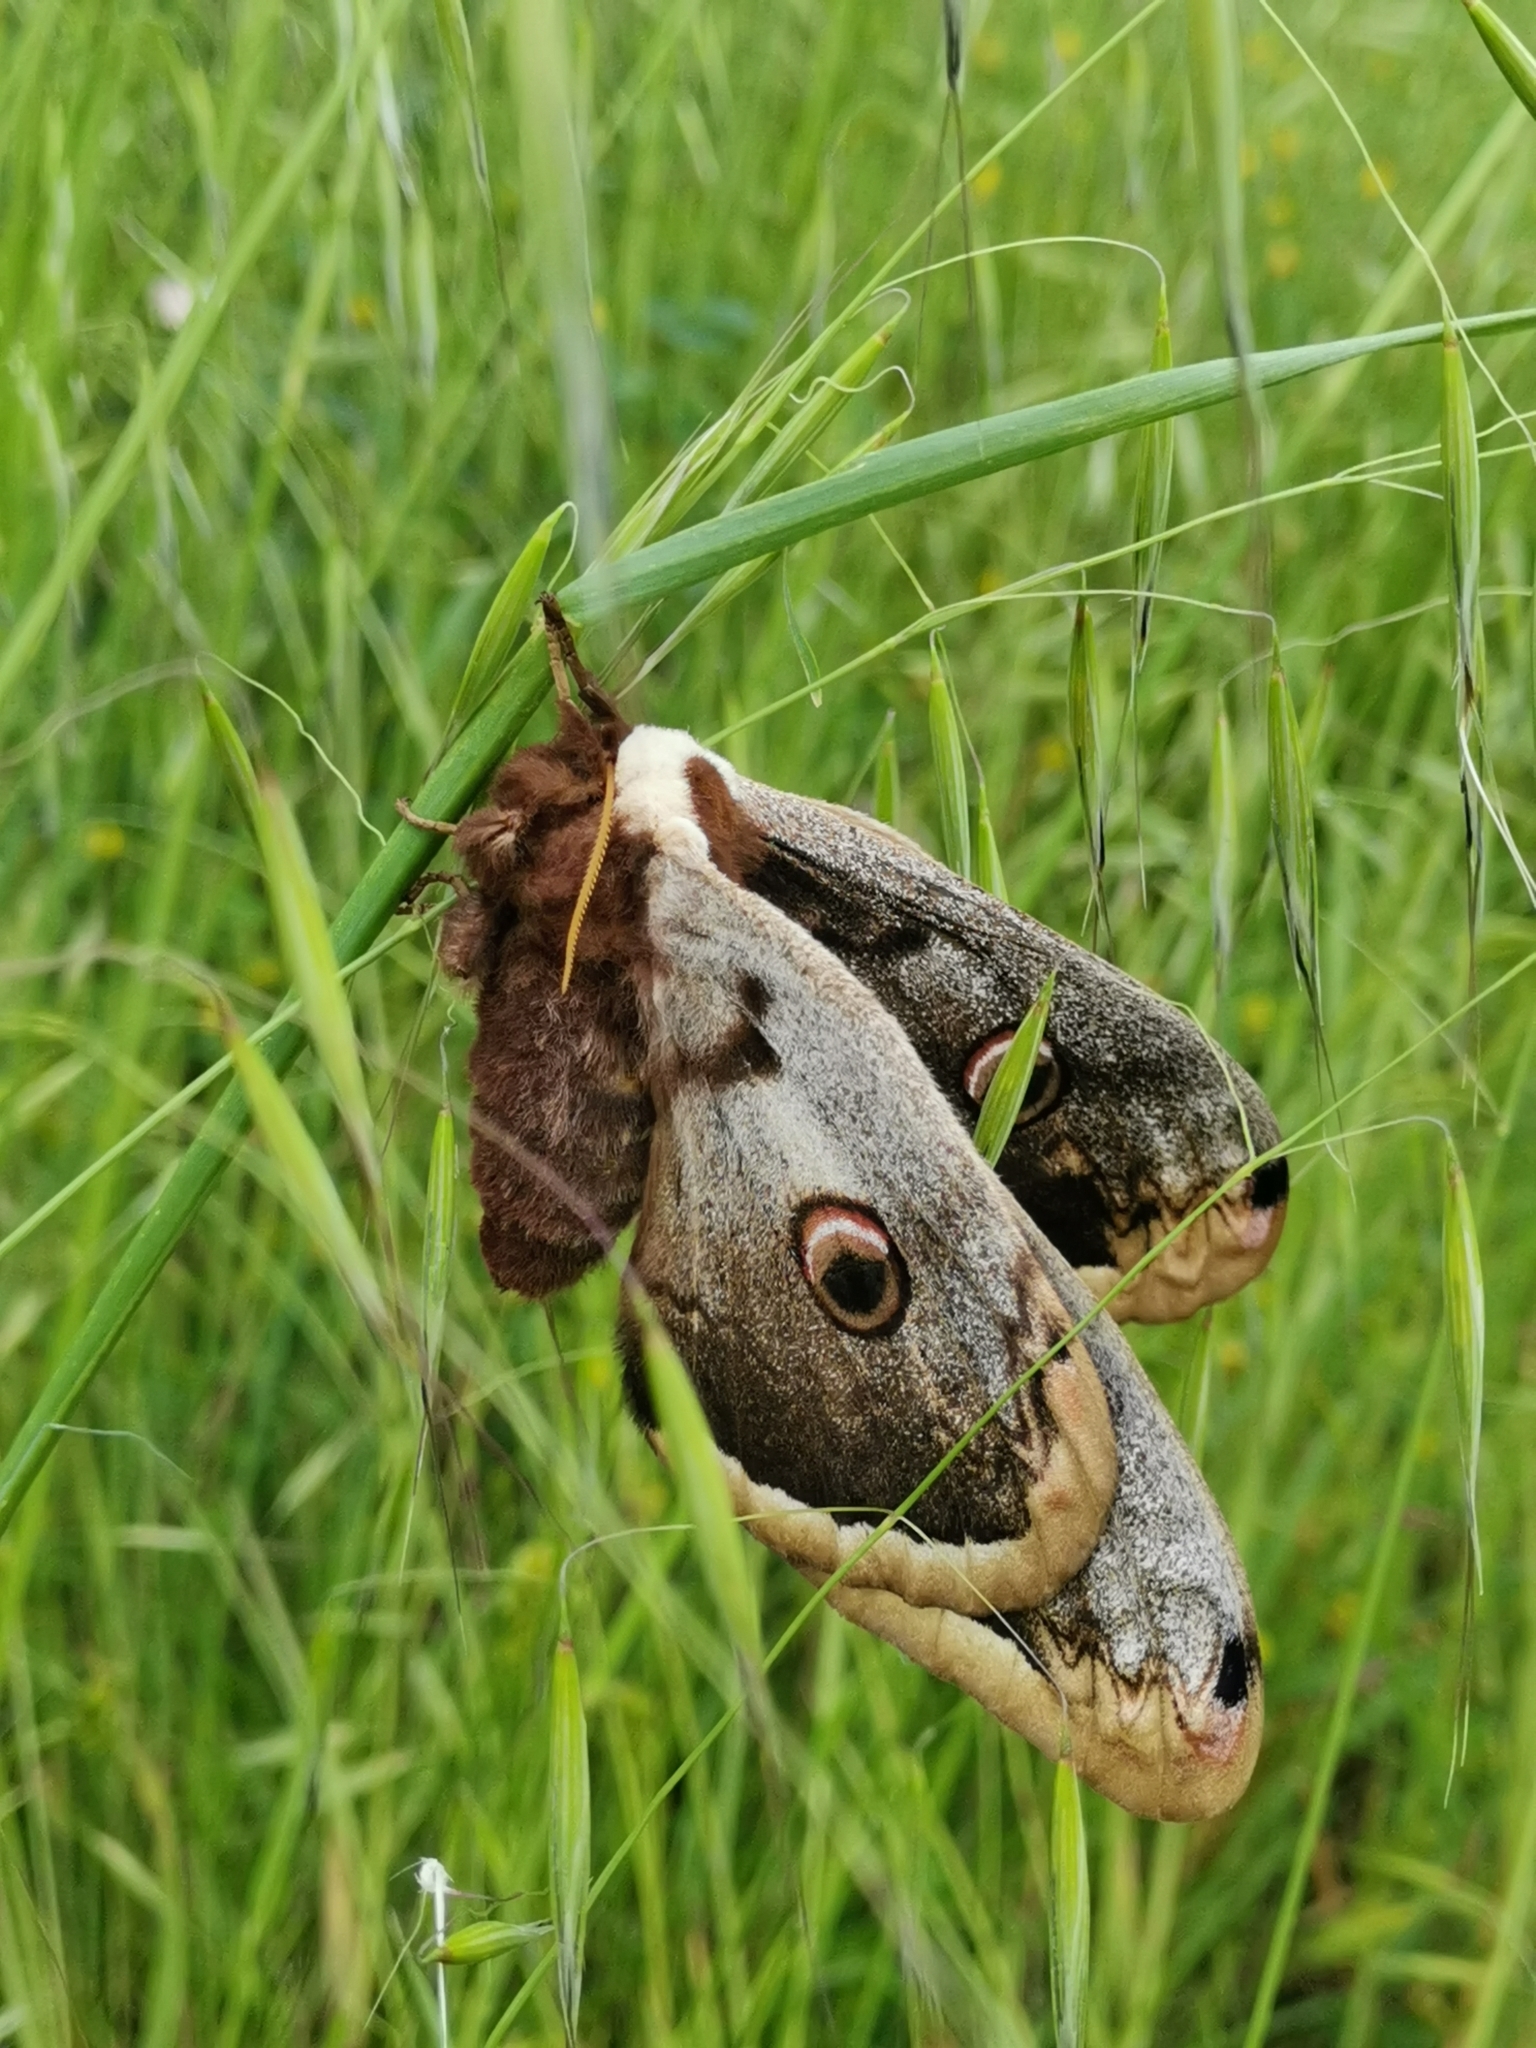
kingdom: Animalia
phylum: Arthropoda
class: Insecta
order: Lepidoptera
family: Saturniidae
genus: Saturnia
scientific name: Saturnia pyri
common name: Great peacock moth
